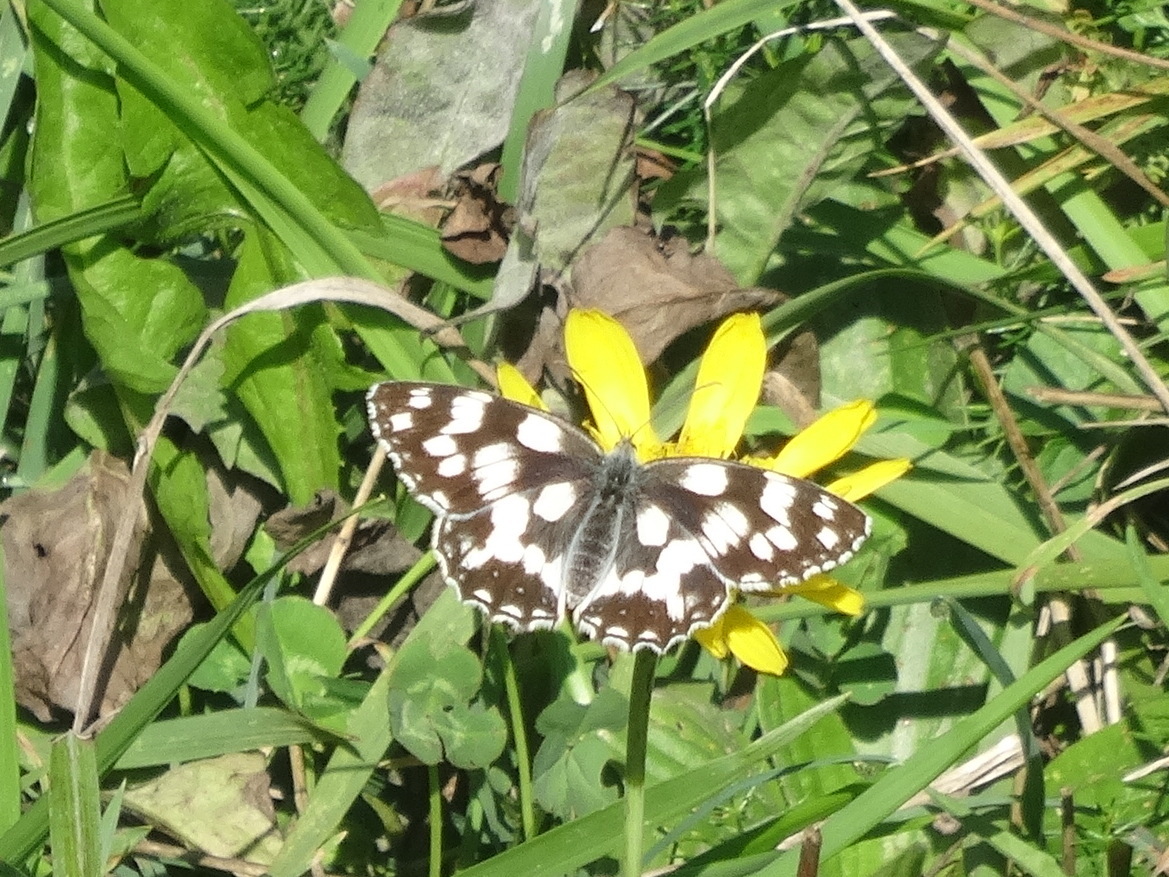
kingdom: Animalia
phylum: Arthropoda
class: Insecta
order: Lepidoptera
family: Nymphalidae
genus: Melanargia
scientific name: Melanargia galathea
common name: Marbled white
